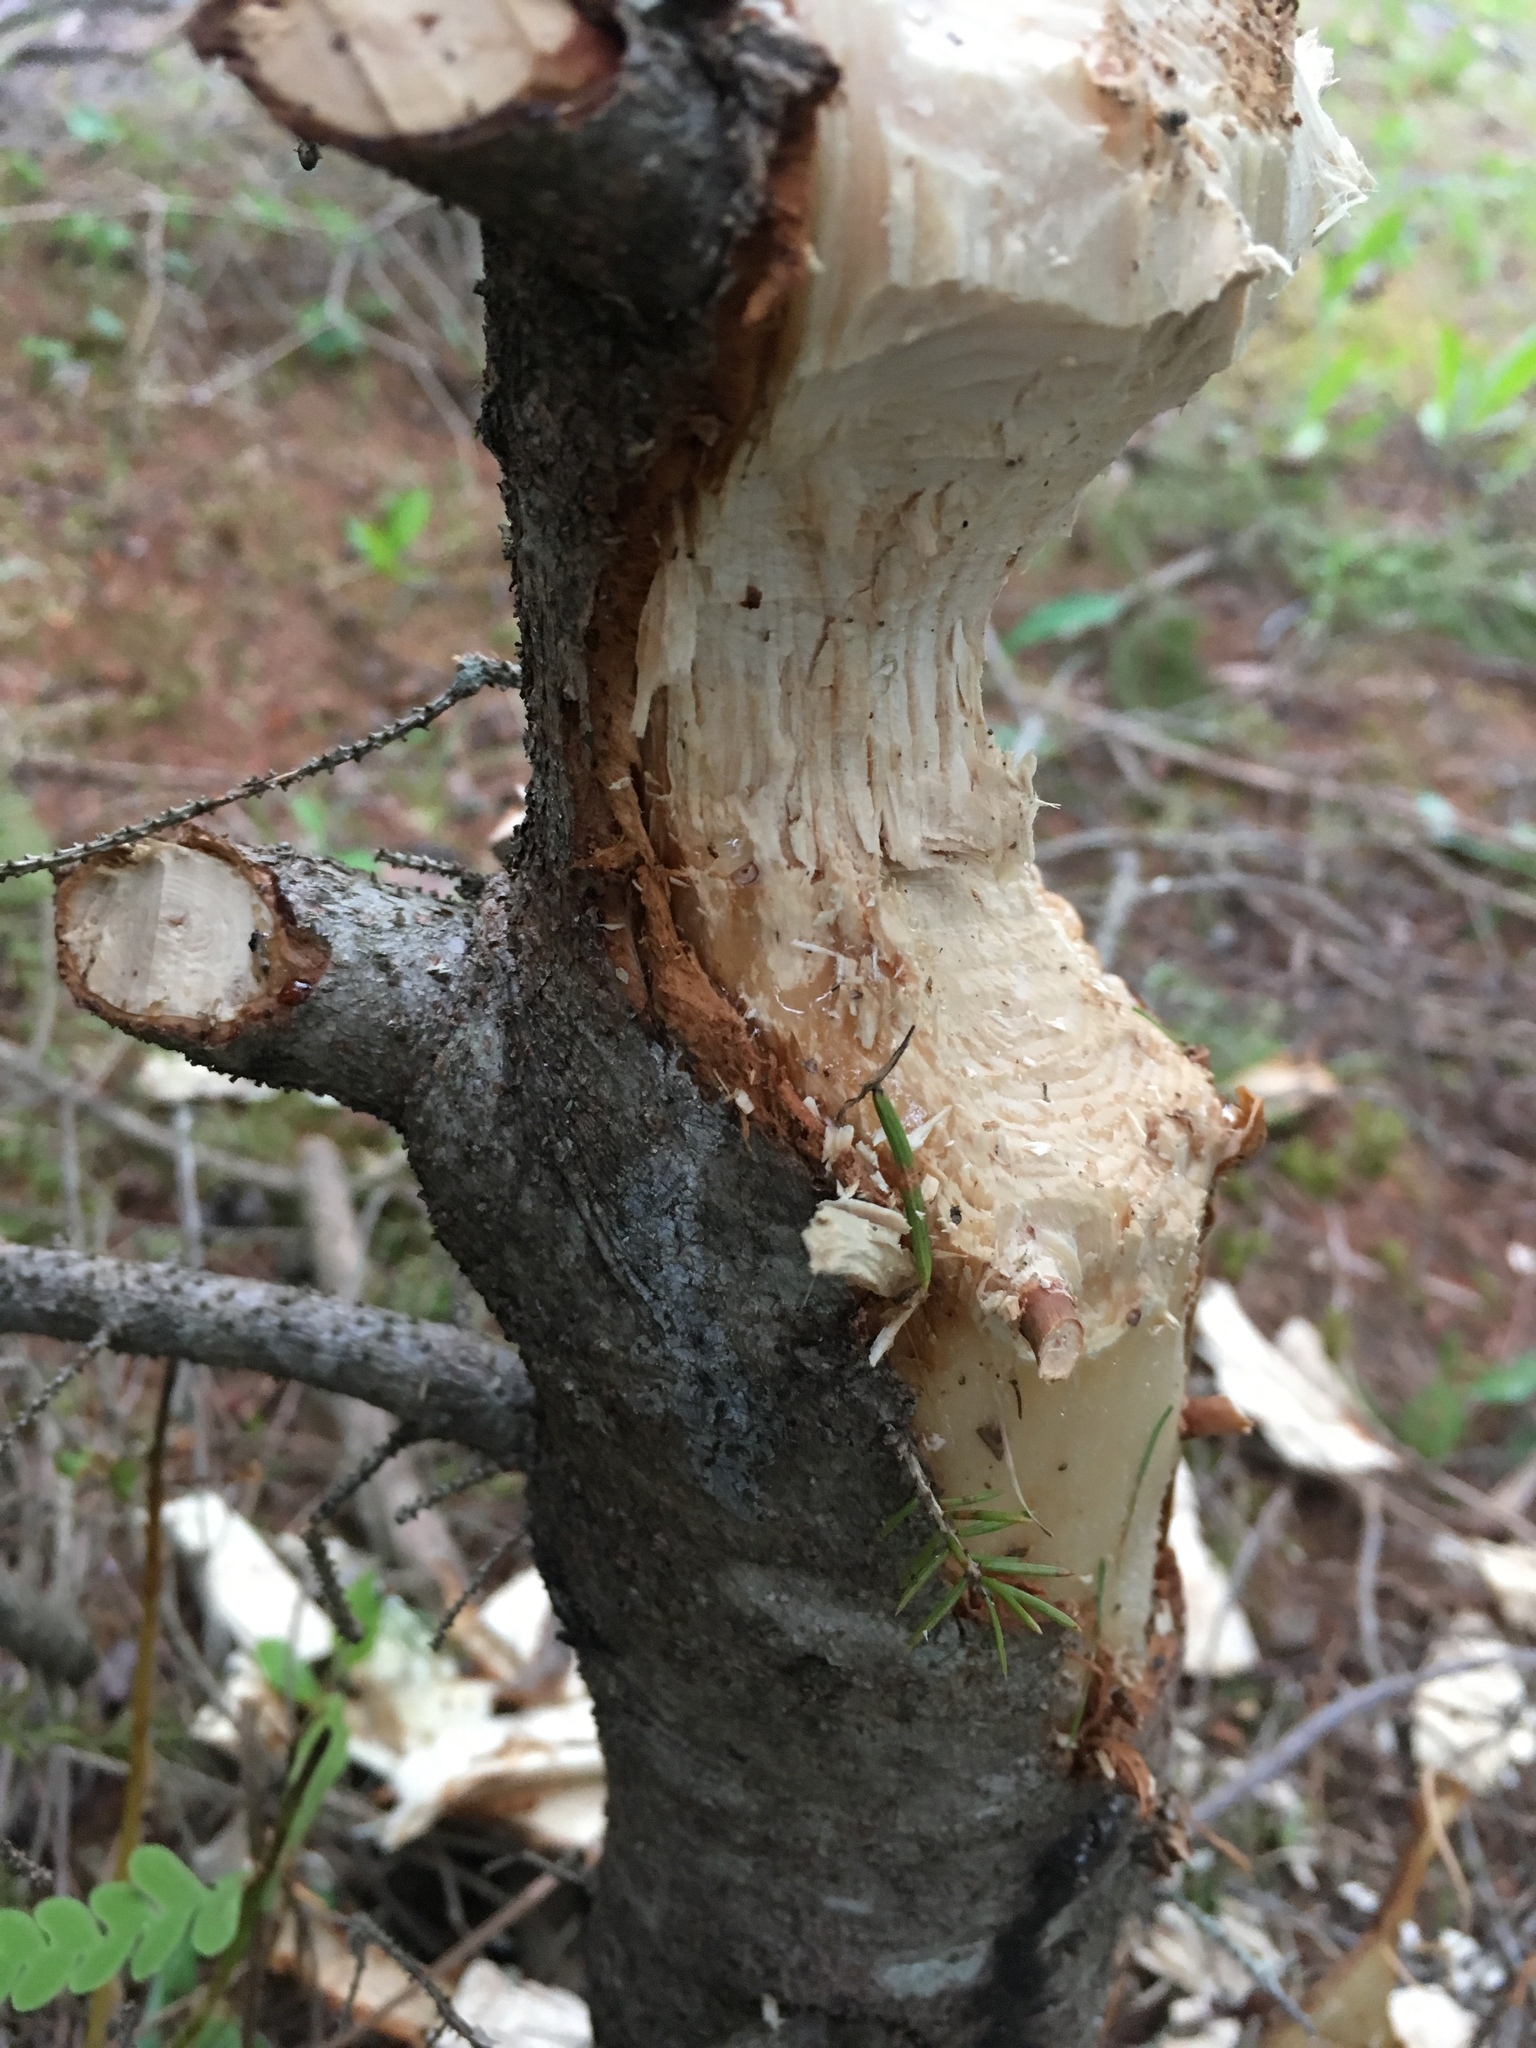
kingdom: Animalia
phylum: Chordata
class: Mammalia
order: Rodentia
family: Castoridae
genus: Castor
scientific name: Castor canadensis
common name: American beaver
